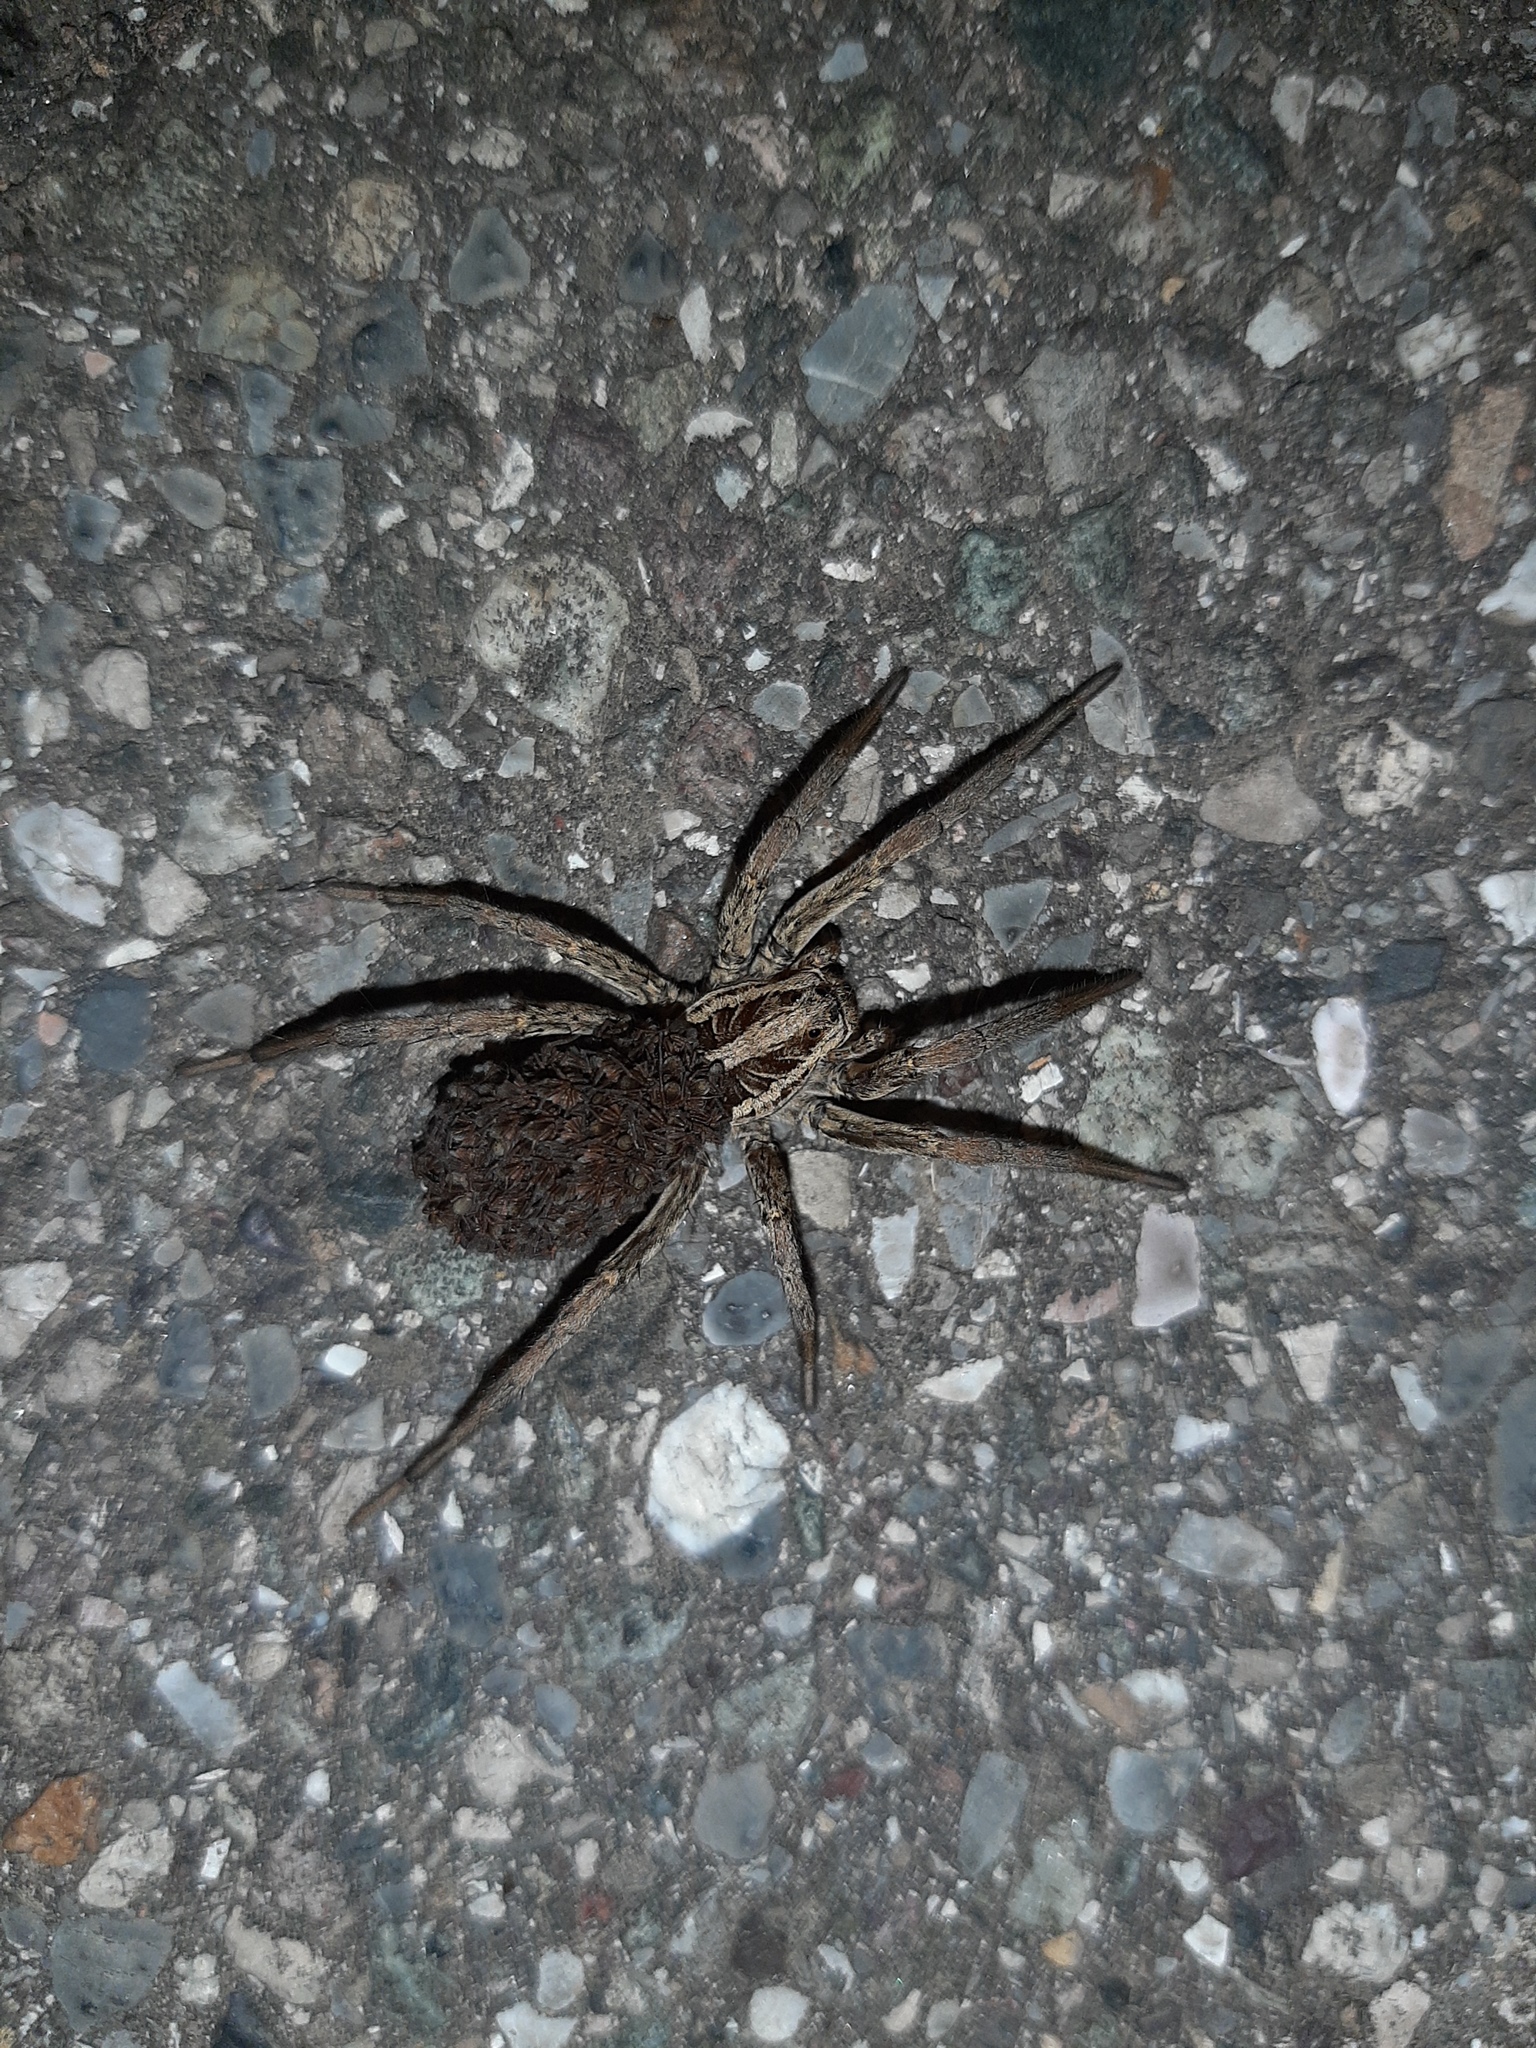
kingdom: Animalia
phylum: Arthropoda
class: Arachnida
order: Araneae
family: Lycosidae
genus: Hogna
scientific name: Hogna radiata
